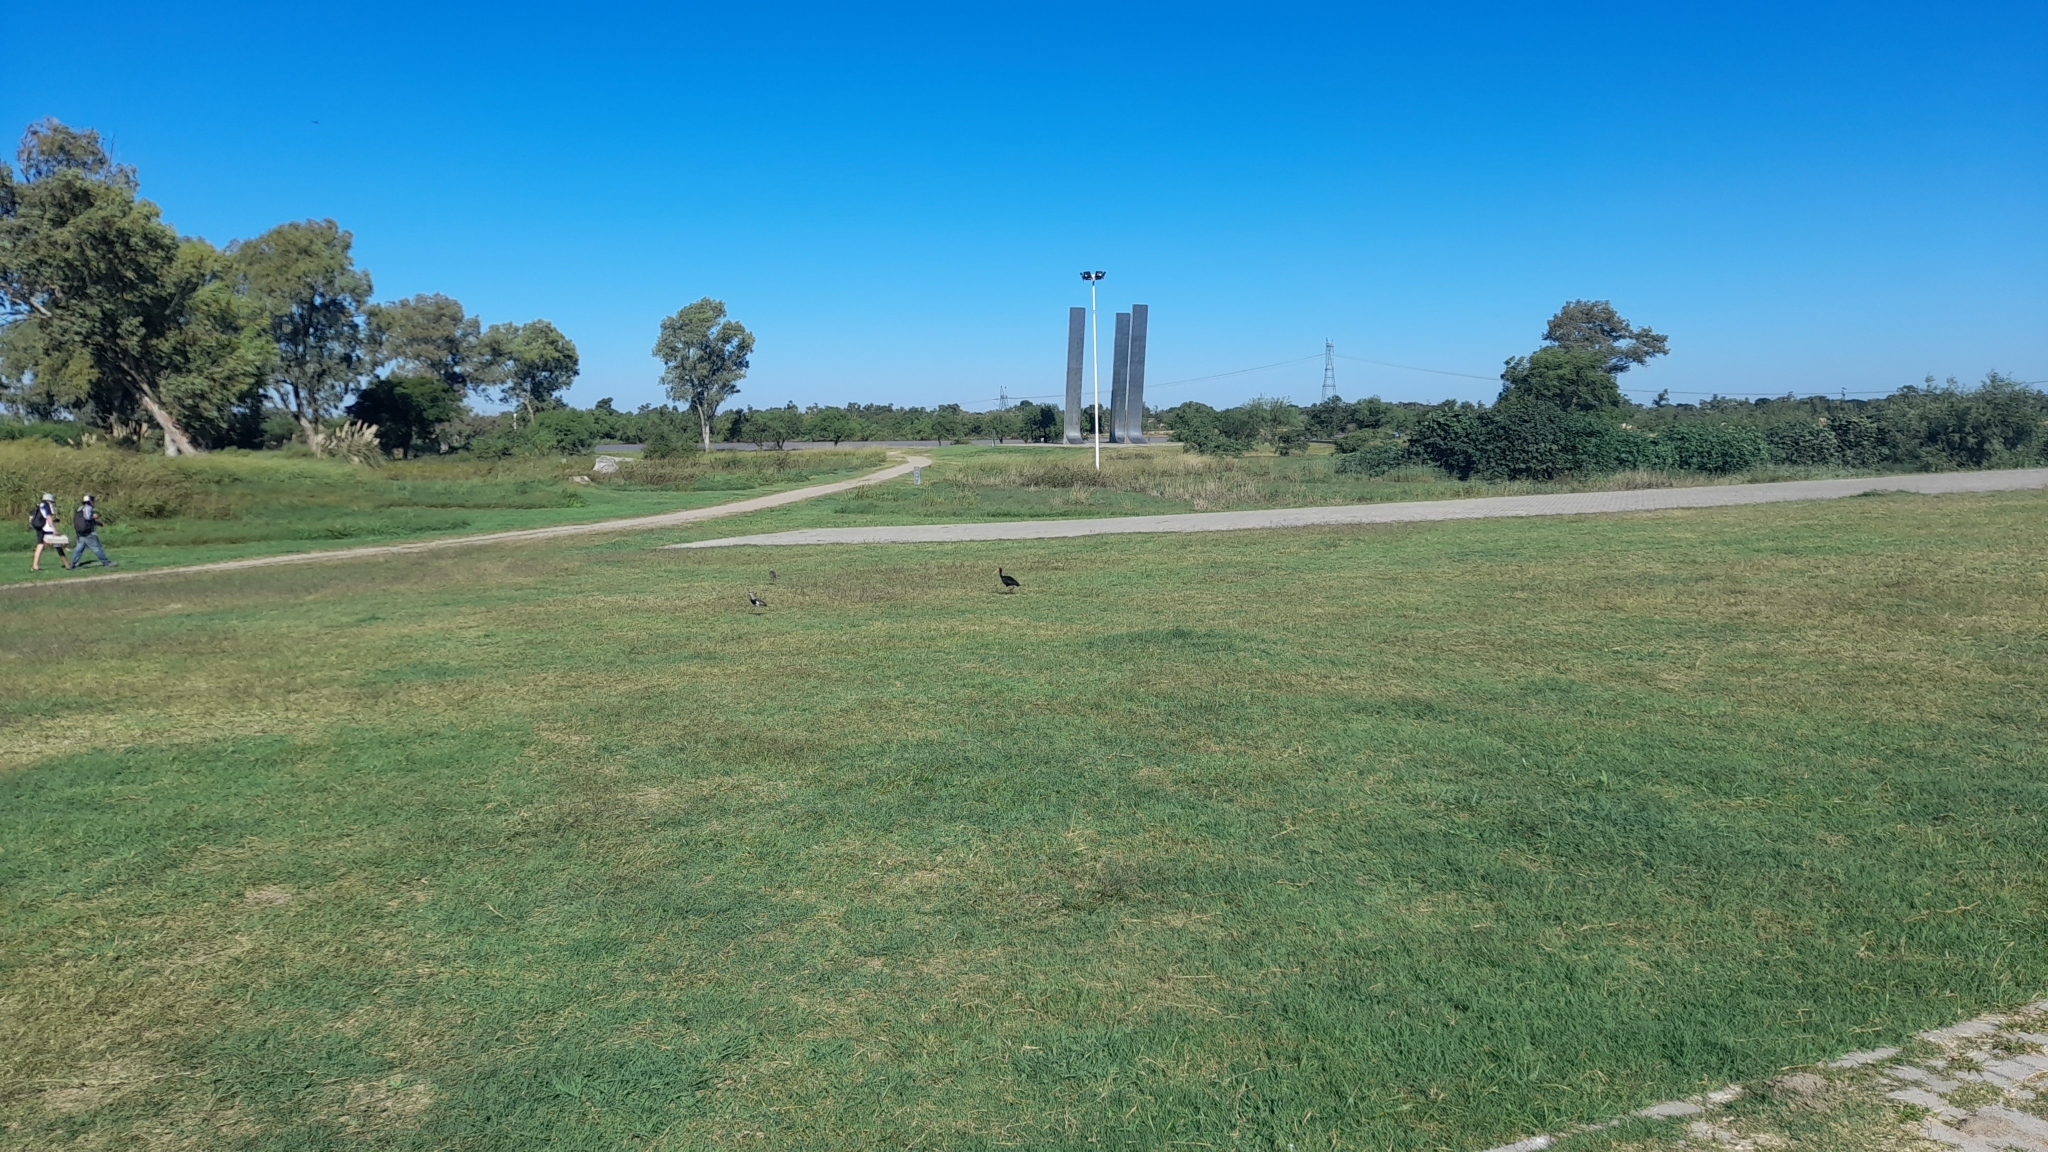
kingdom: Animalia
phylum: Chordata
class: Aves
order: Pelecaniformes
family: Threskiornithidae
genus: Phimosus
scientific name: Phimosus infuscatus
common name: Bare-faced ibis
